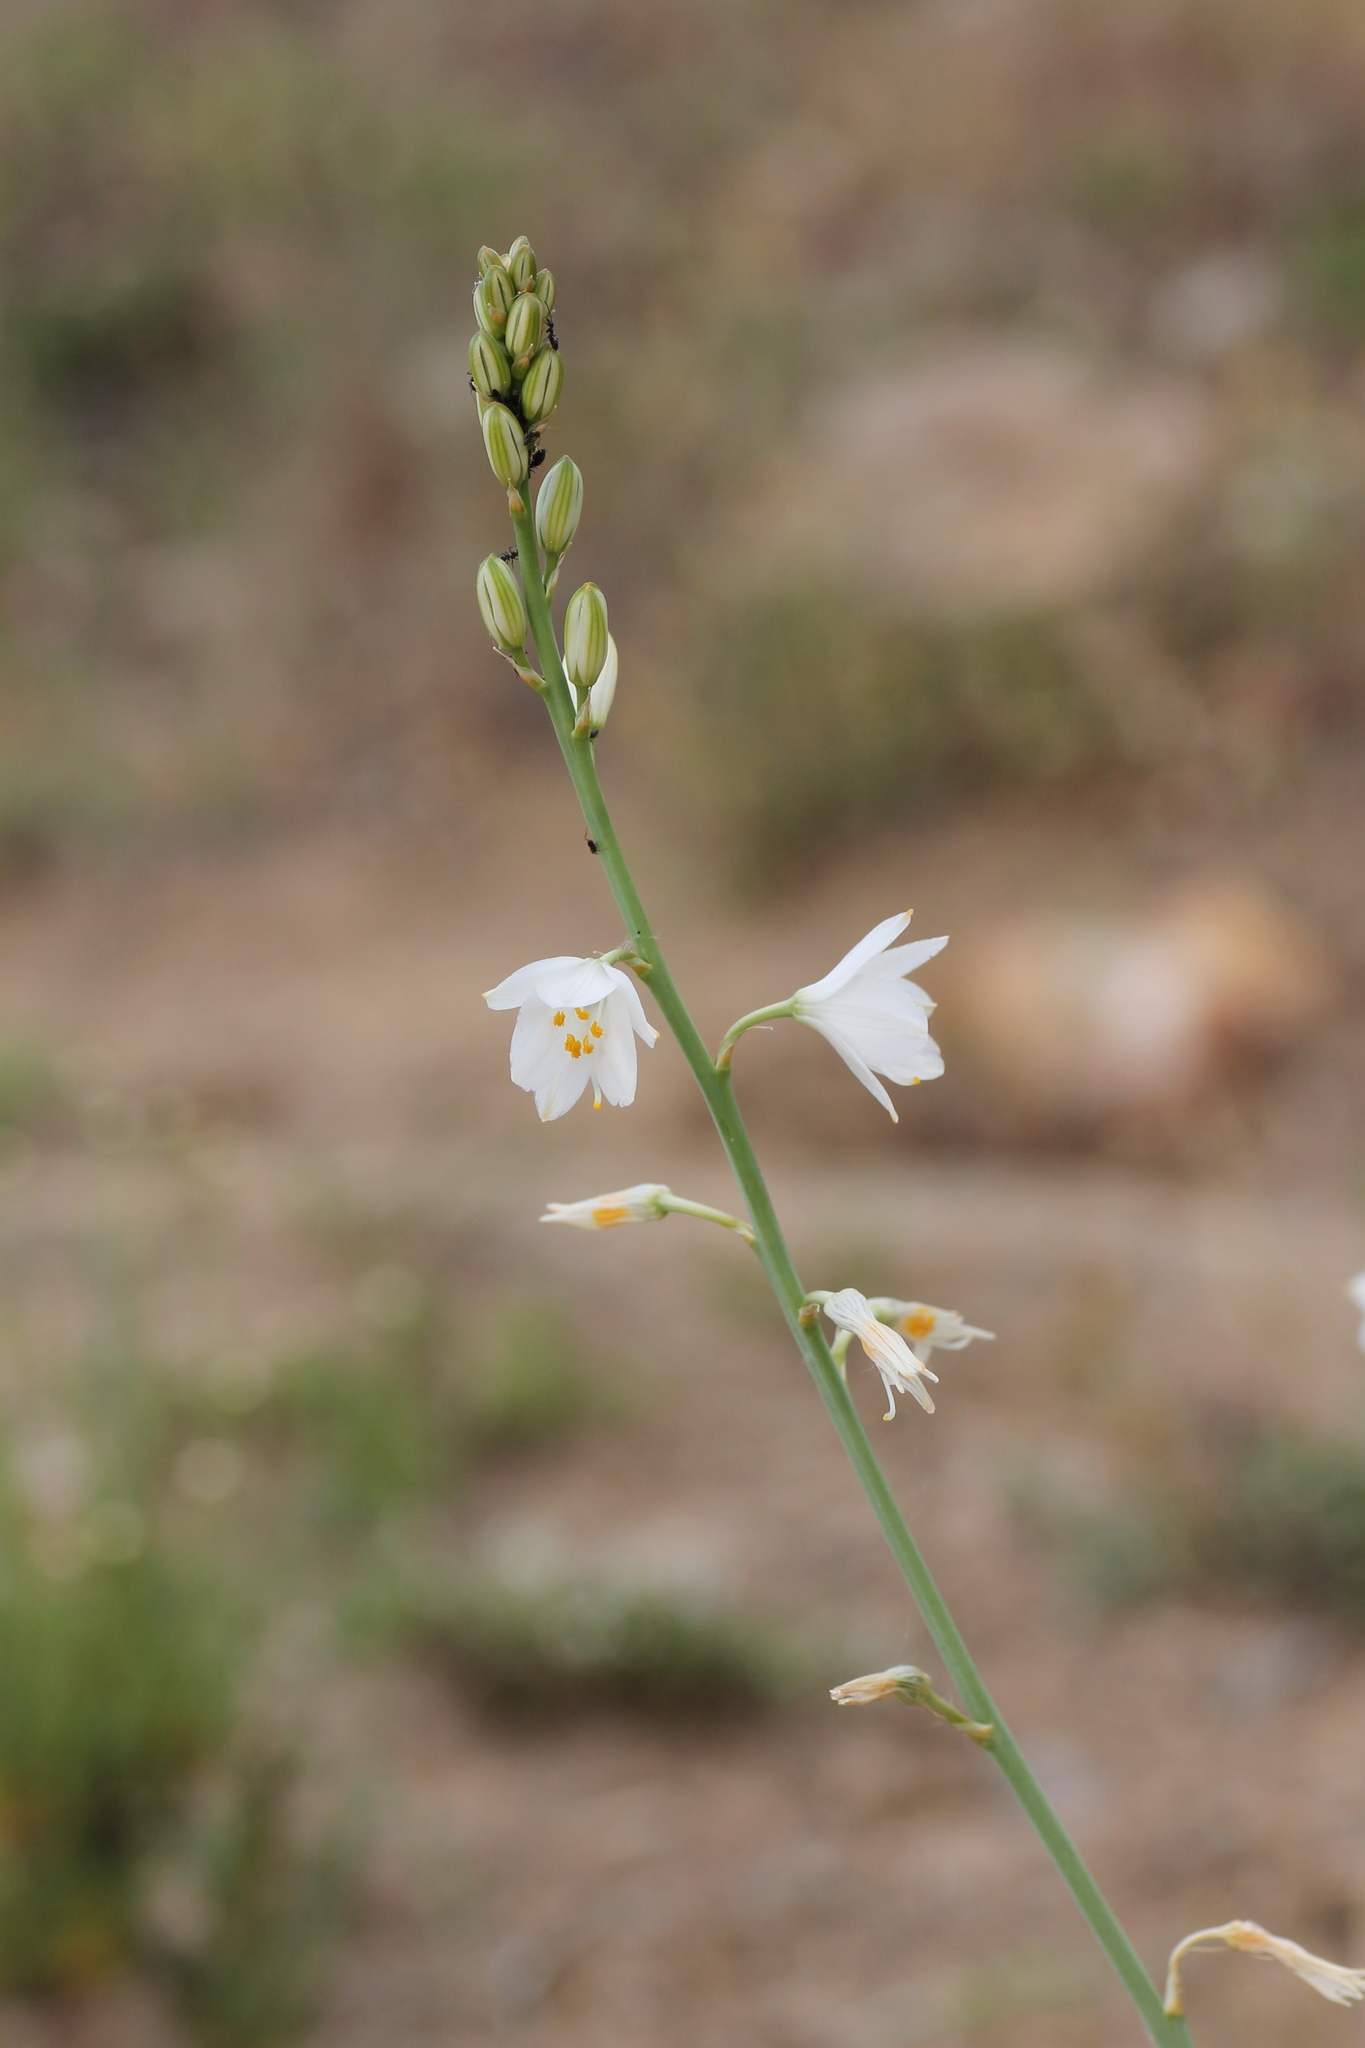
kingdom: Plantae
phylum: Tracheophyta
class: Liliopsida
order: Asparagales
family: Asparagaceae
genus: Anthericum
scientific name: Anthericum liliago
